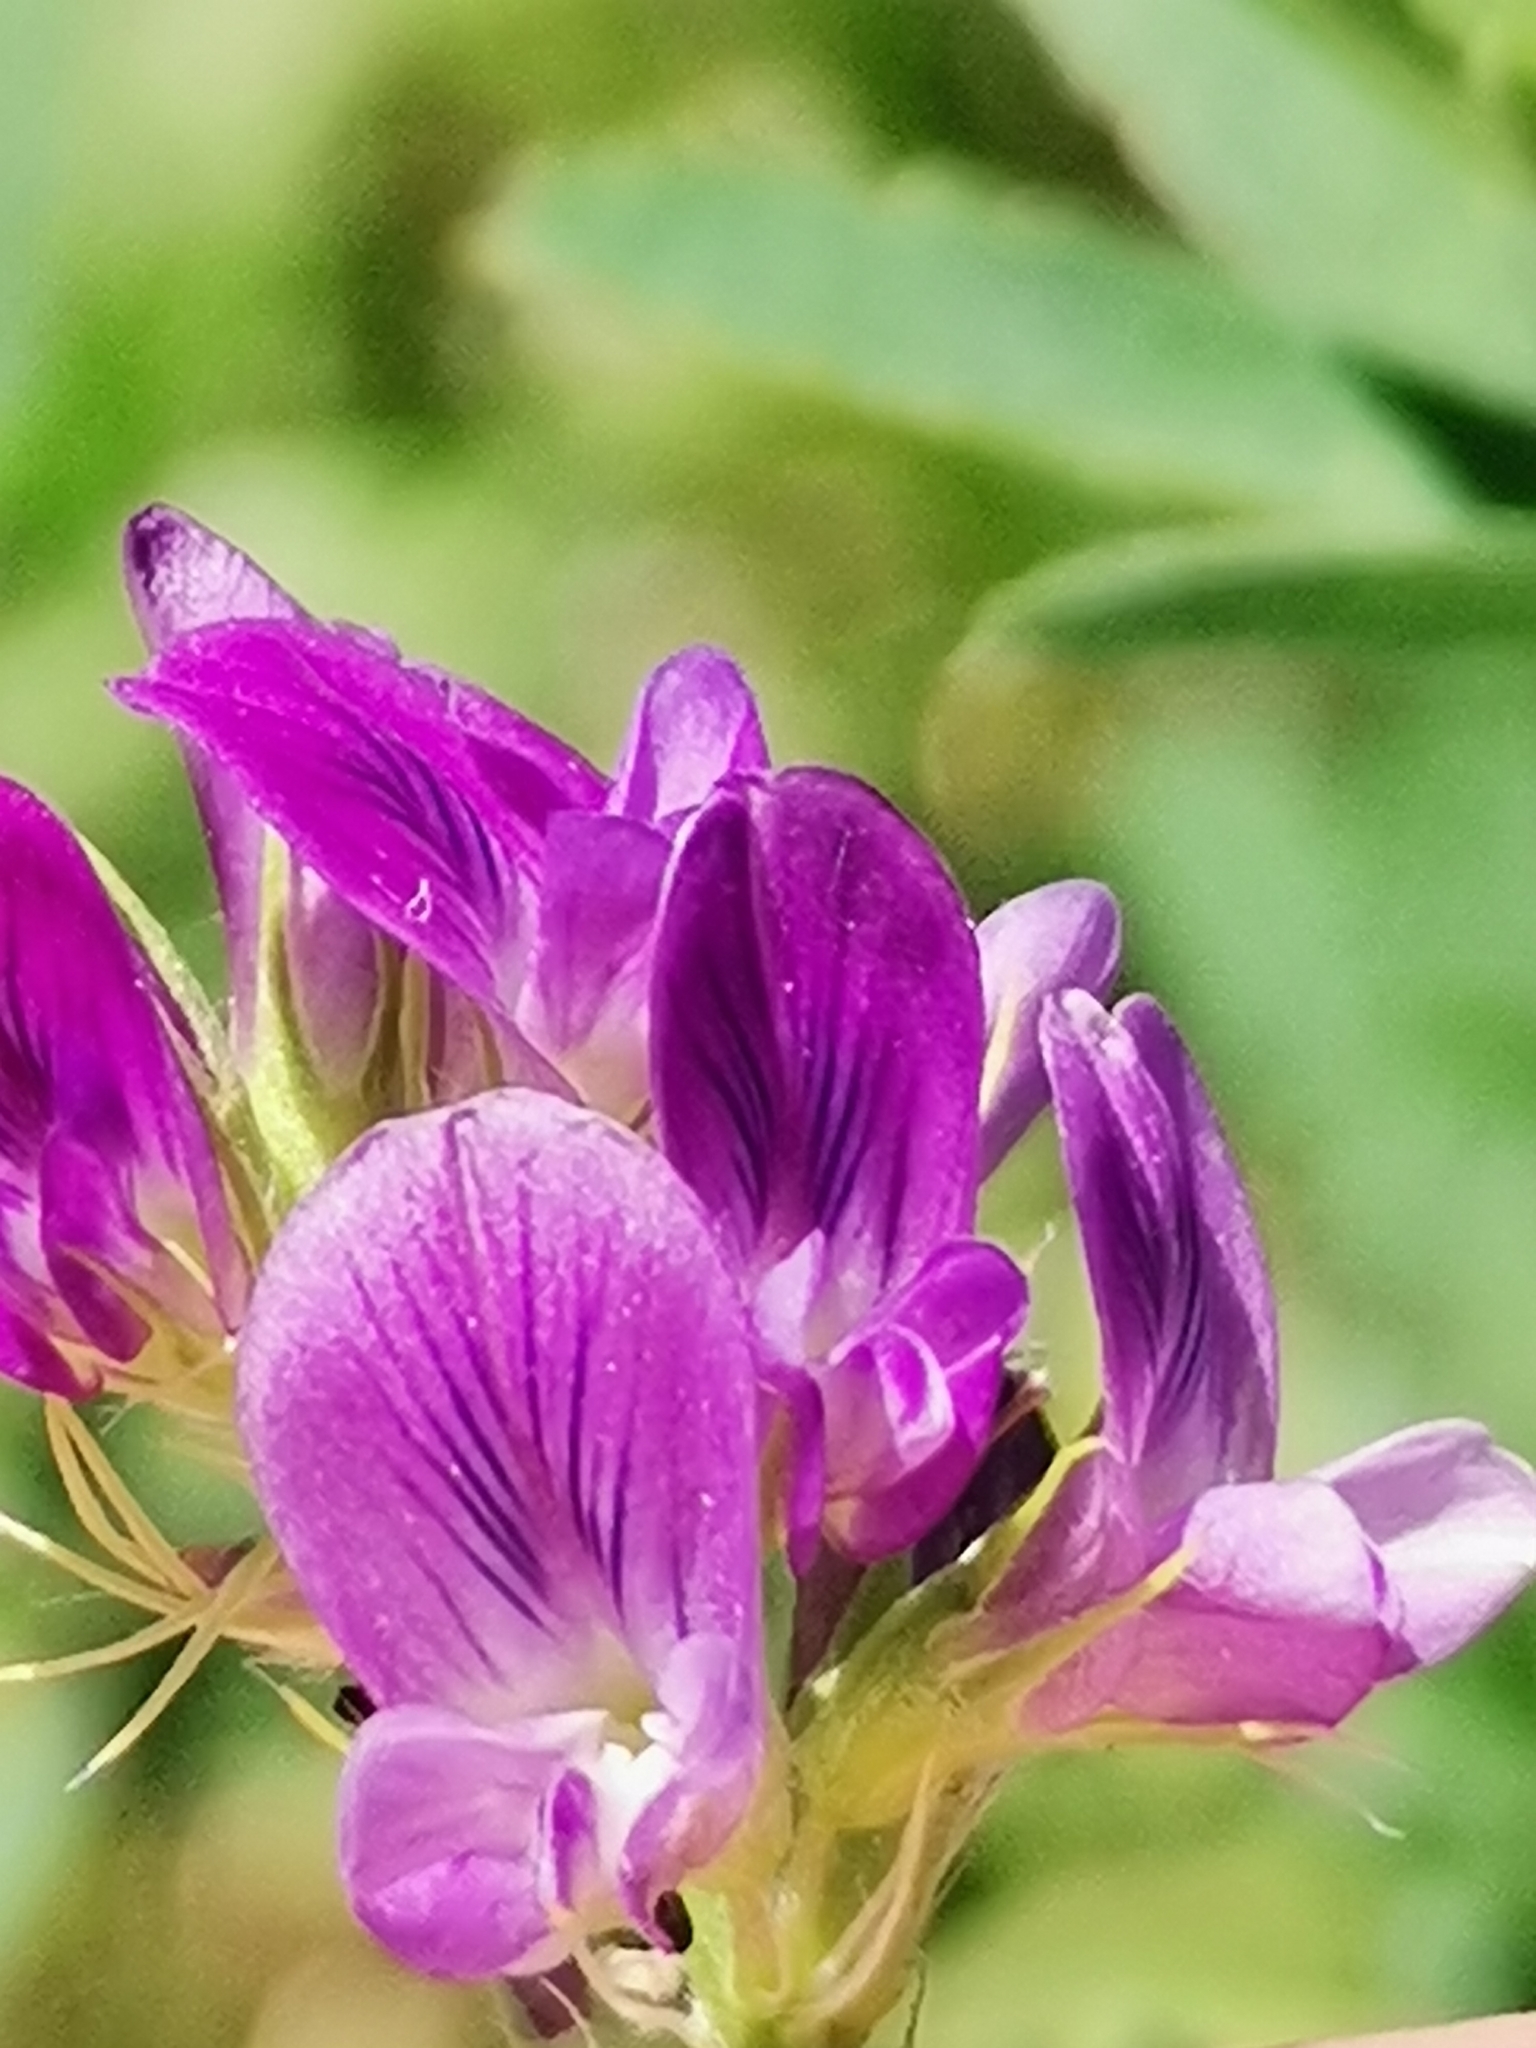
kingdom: Plantae
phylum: Tracheophyta
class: Magnoliopsida
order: Fabales
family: Fabaceae
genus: Medicago
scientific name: Medicago sativa
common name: Alfalfa
